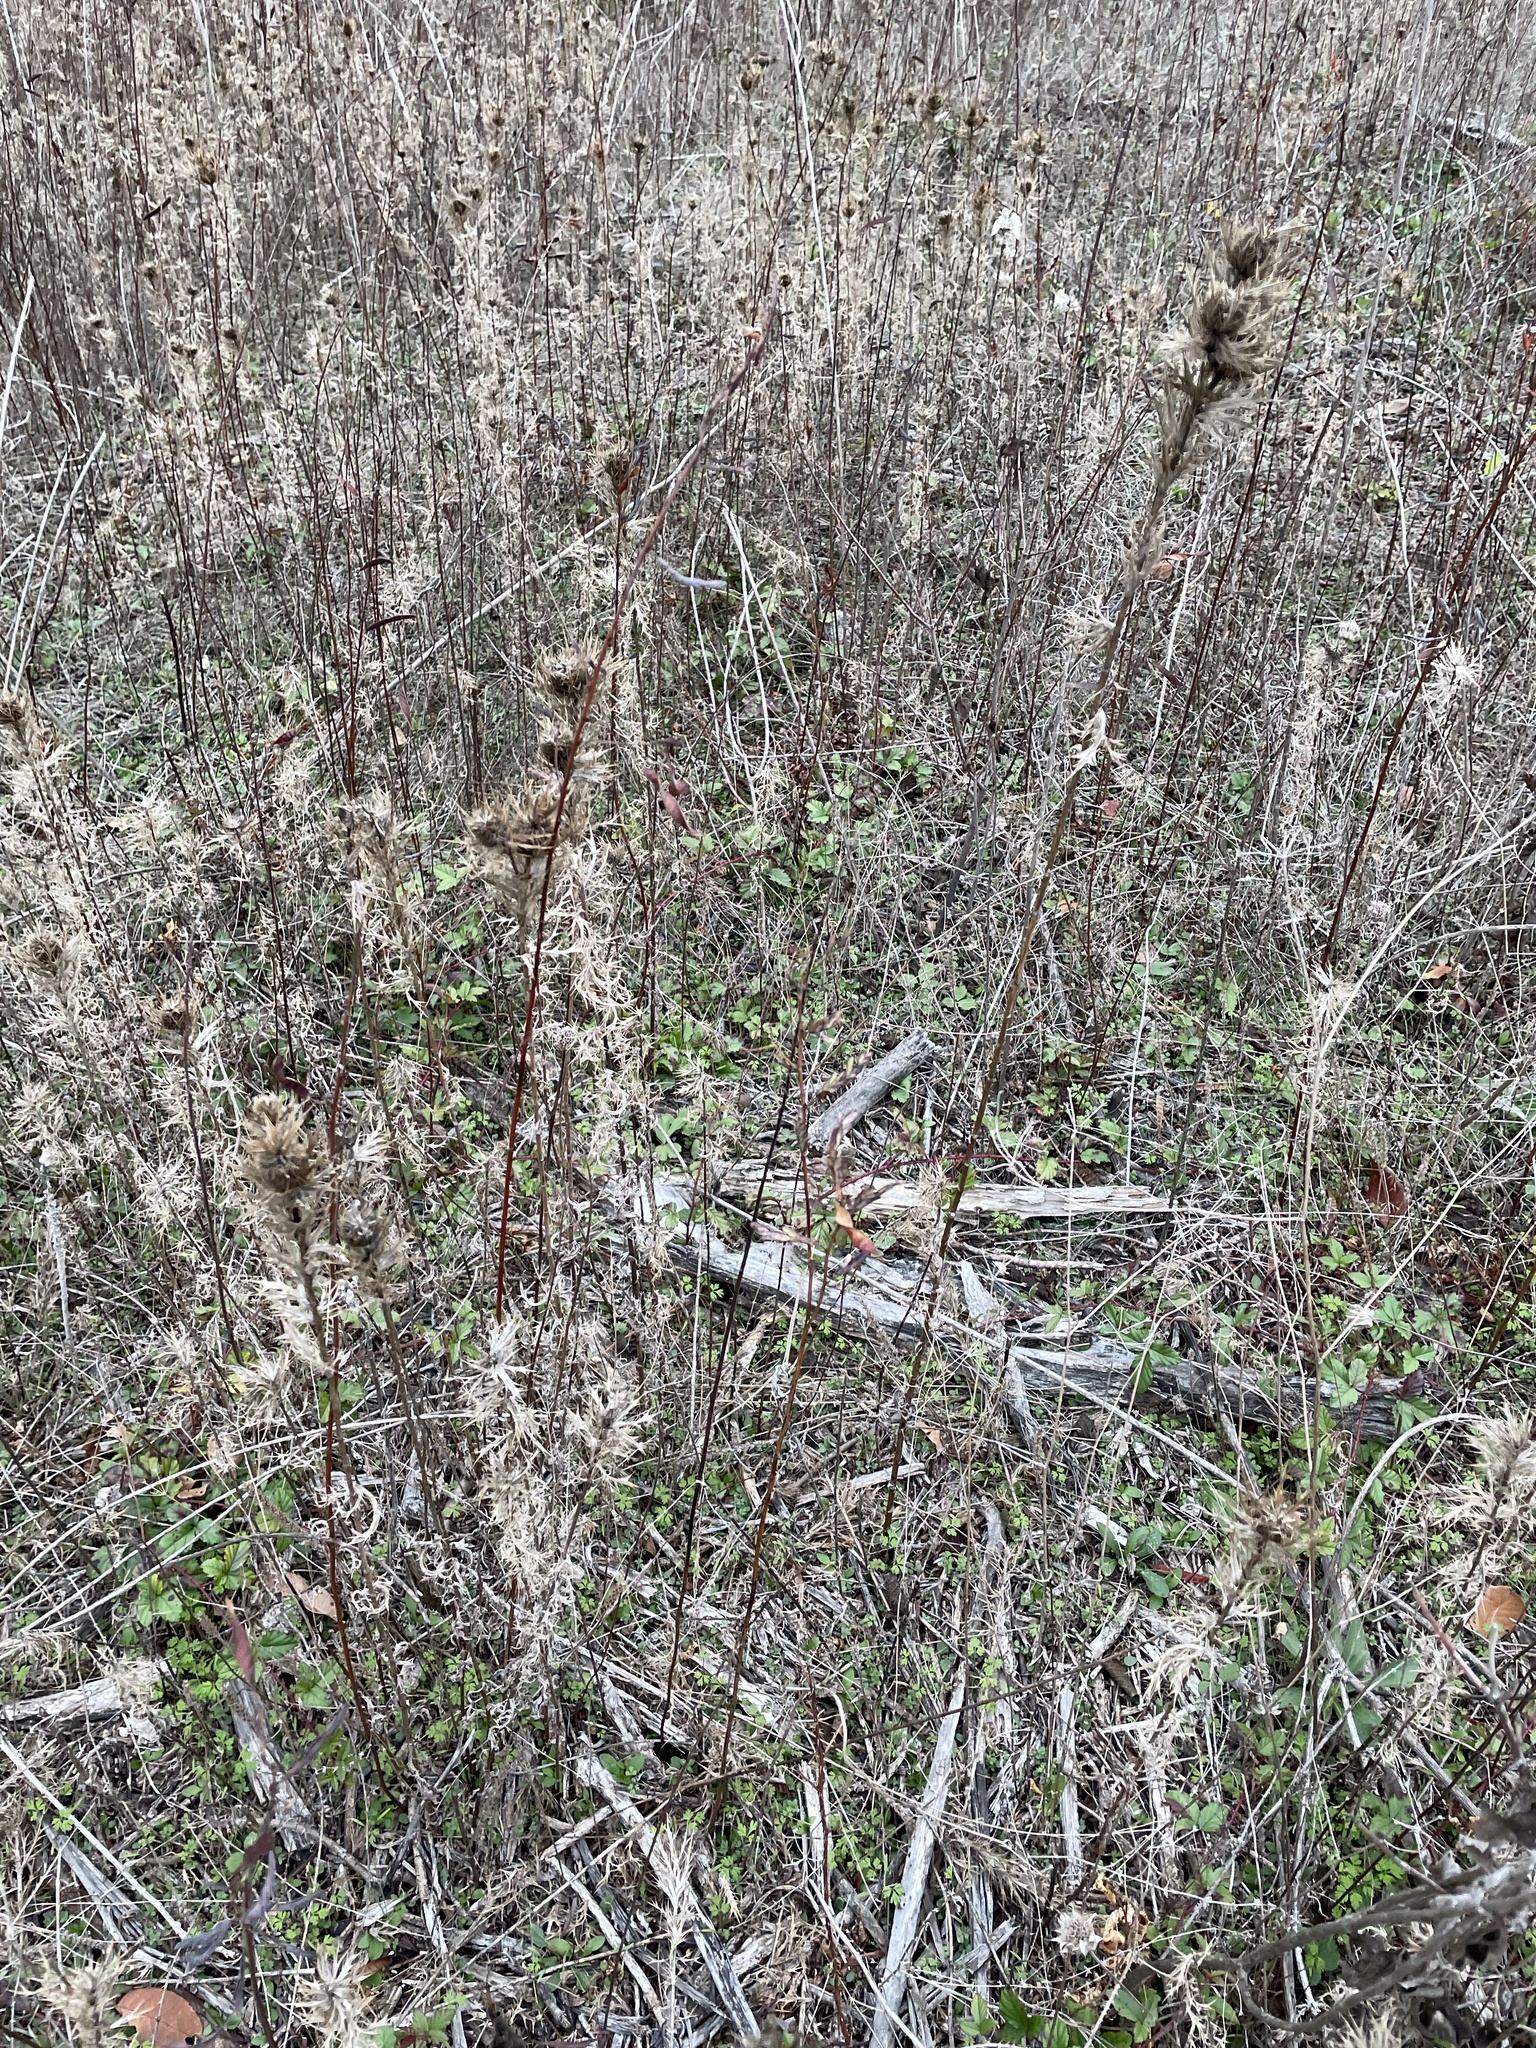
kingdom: Plantae
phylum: Tracheophyta
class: Magnoliopsida
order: Apiales
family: Apiaceae
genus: Eryngium
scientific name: Eryngium leavenworthii
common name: Leavenworth's eryngo
